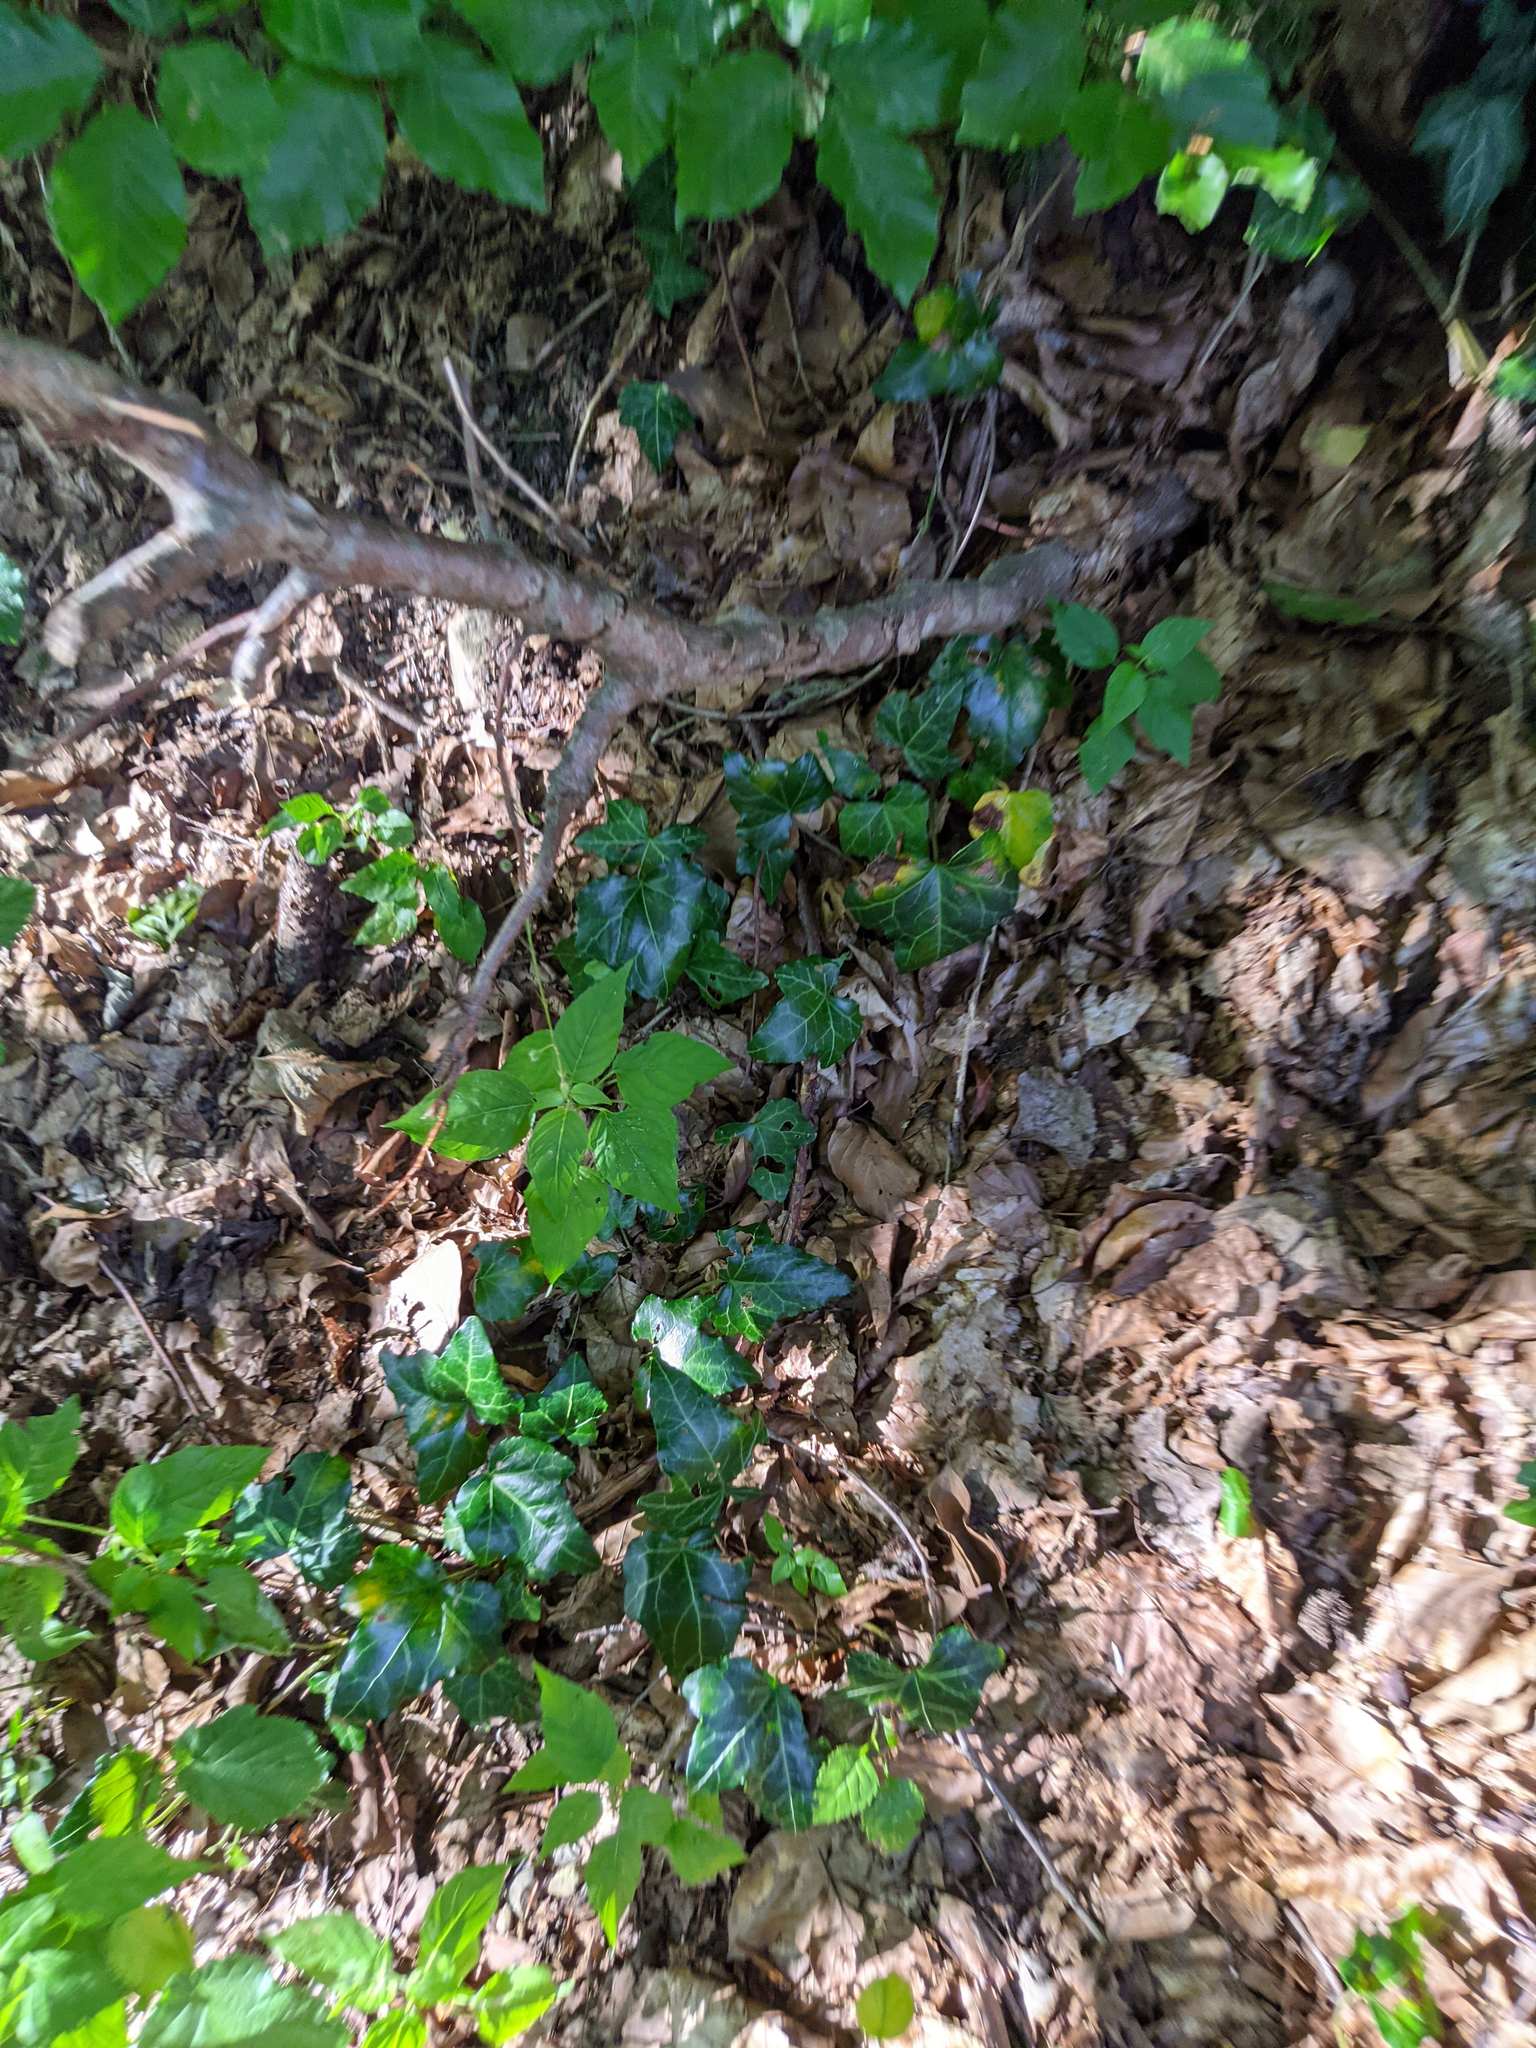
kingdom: Plantae
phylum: Tracheophyta
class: Magnoliopsida
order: Apiales
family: Araliaceae
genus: Hedera
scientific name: Hedera helix
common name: Ivy
